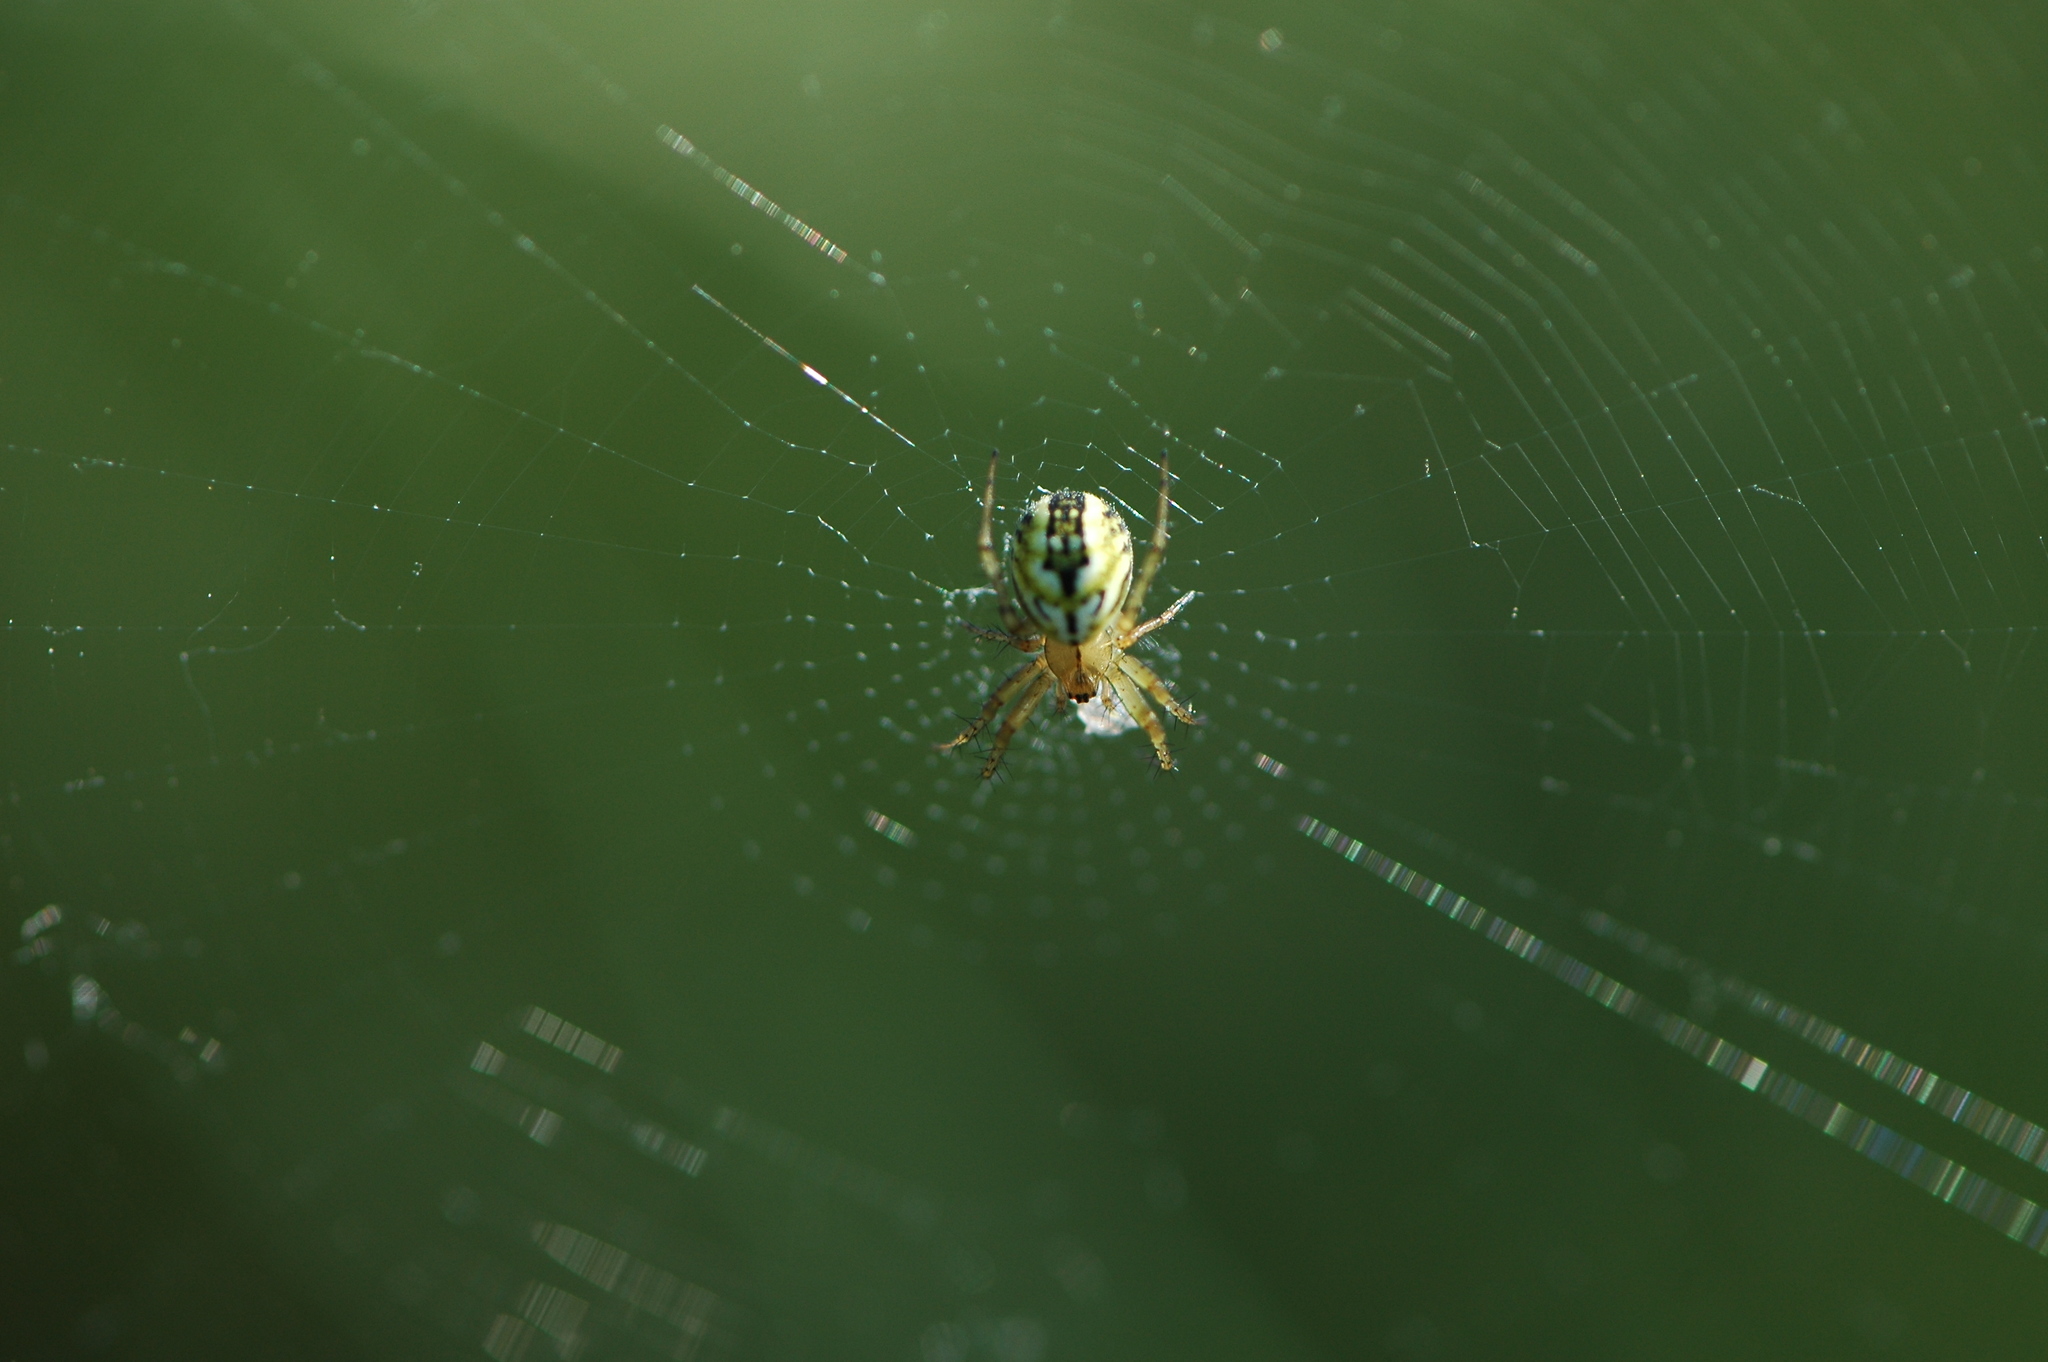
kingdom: Animalia
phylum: Arthropoda
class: Arachnida
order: Araneae
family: Araneidae
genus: Mangora
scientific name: Mangora acalypha
